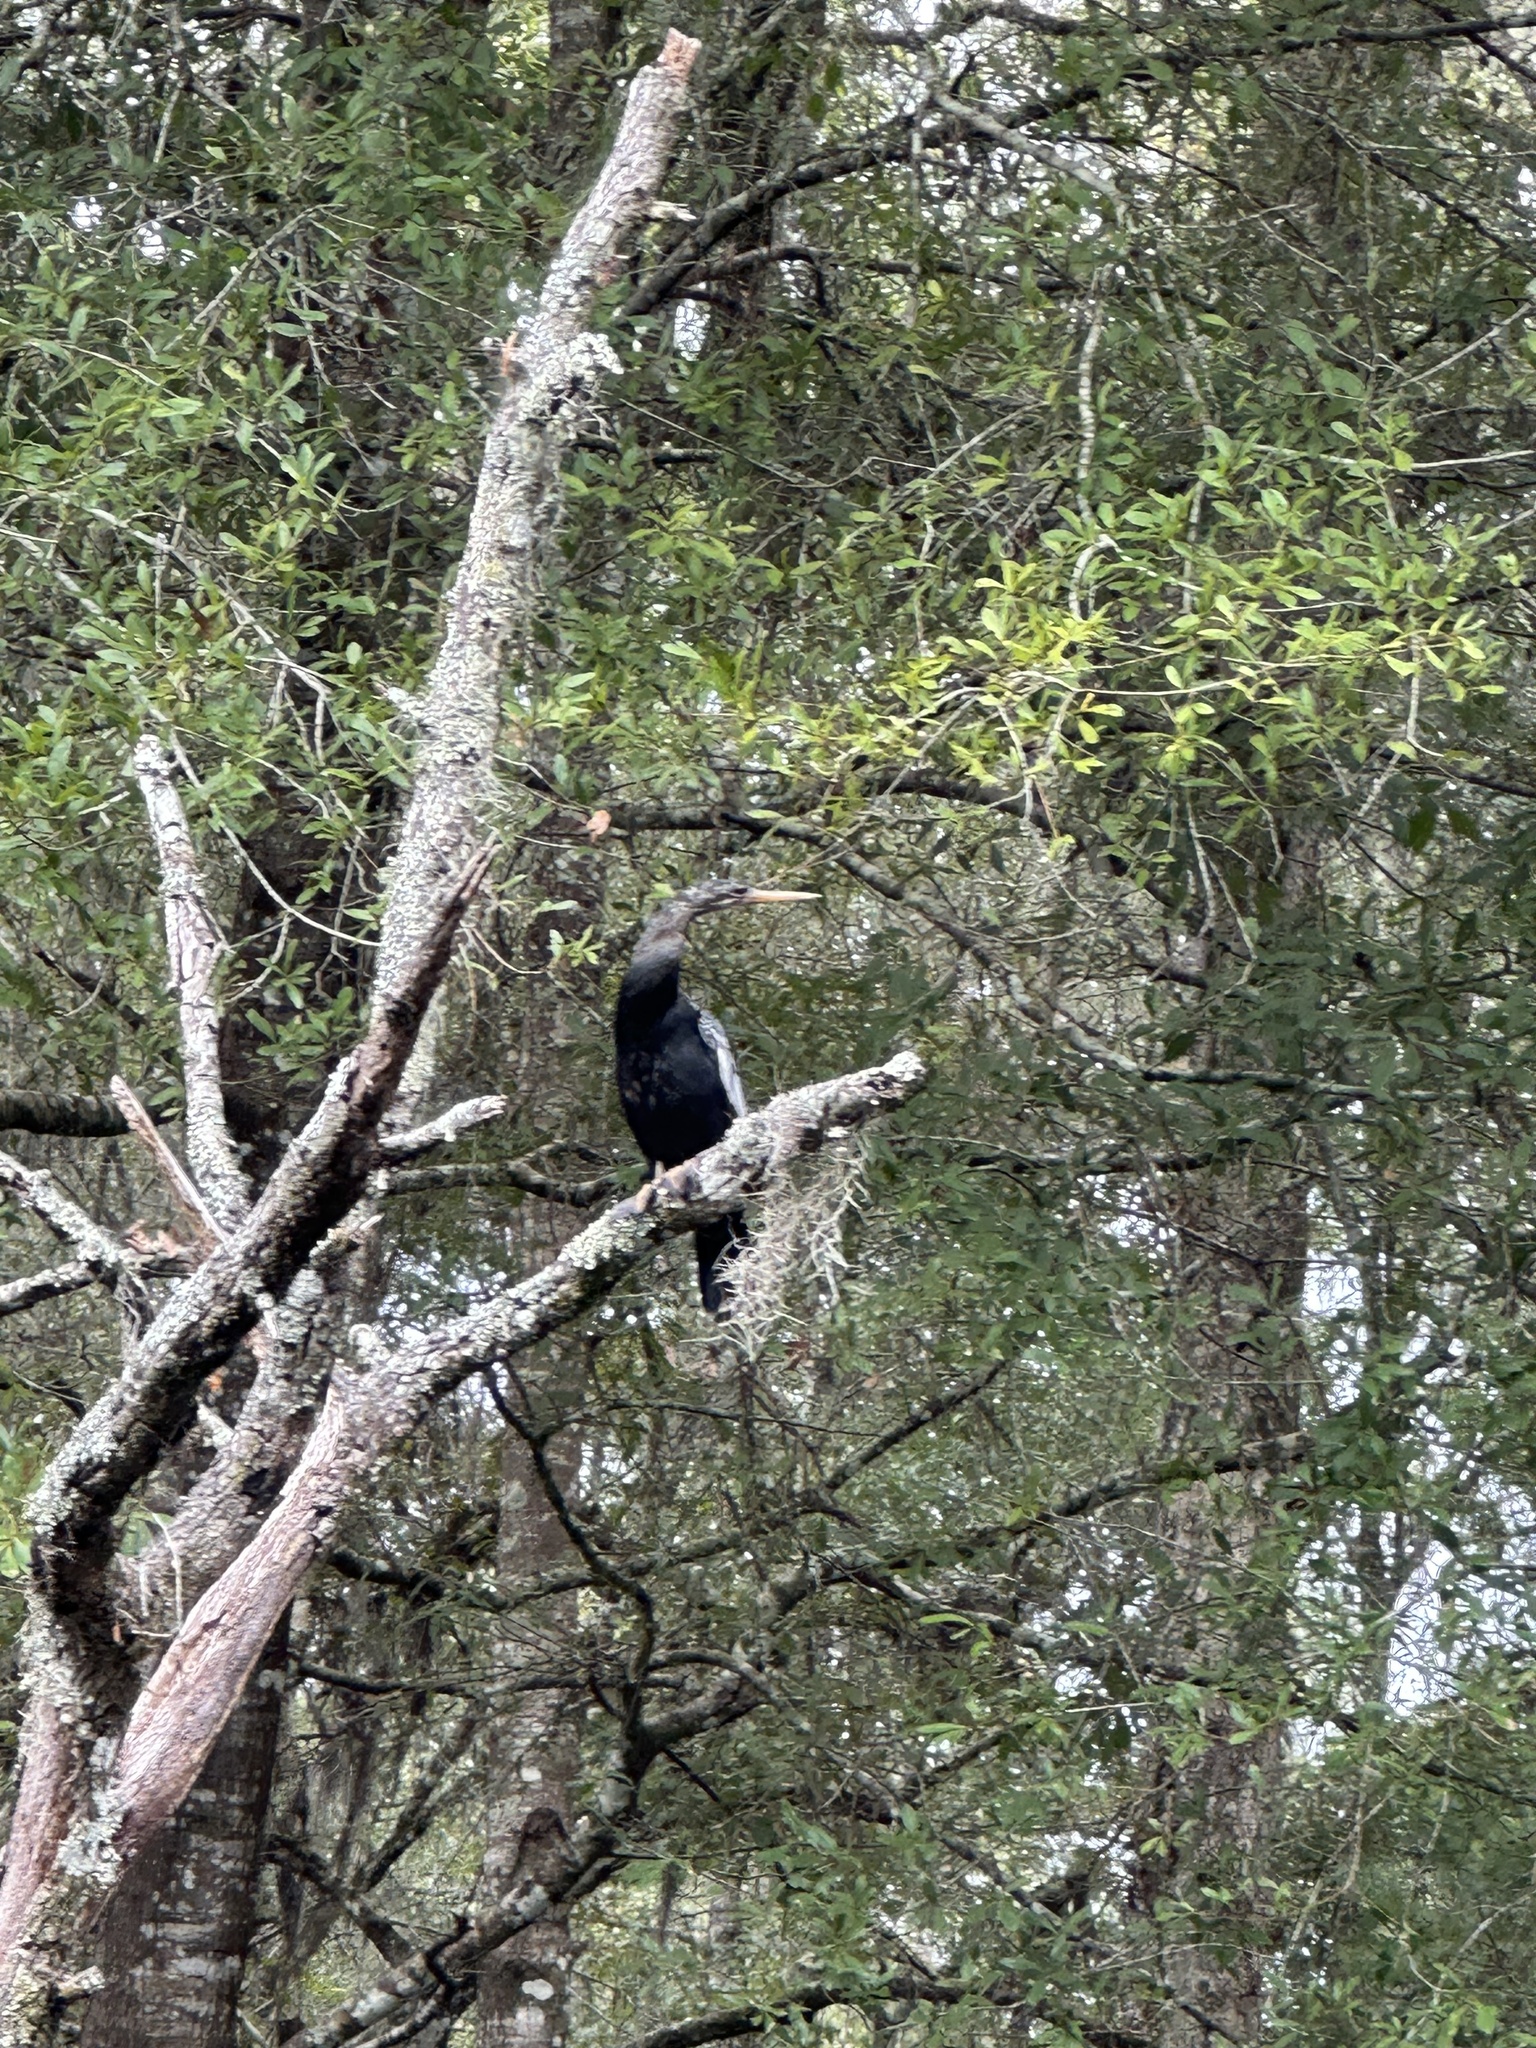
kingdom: Animalia
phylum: Chordata
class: Aves
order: Suliformes
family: Anhingidae
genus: Anhinga
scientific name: Anhinga anhinga
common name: Anhinga
